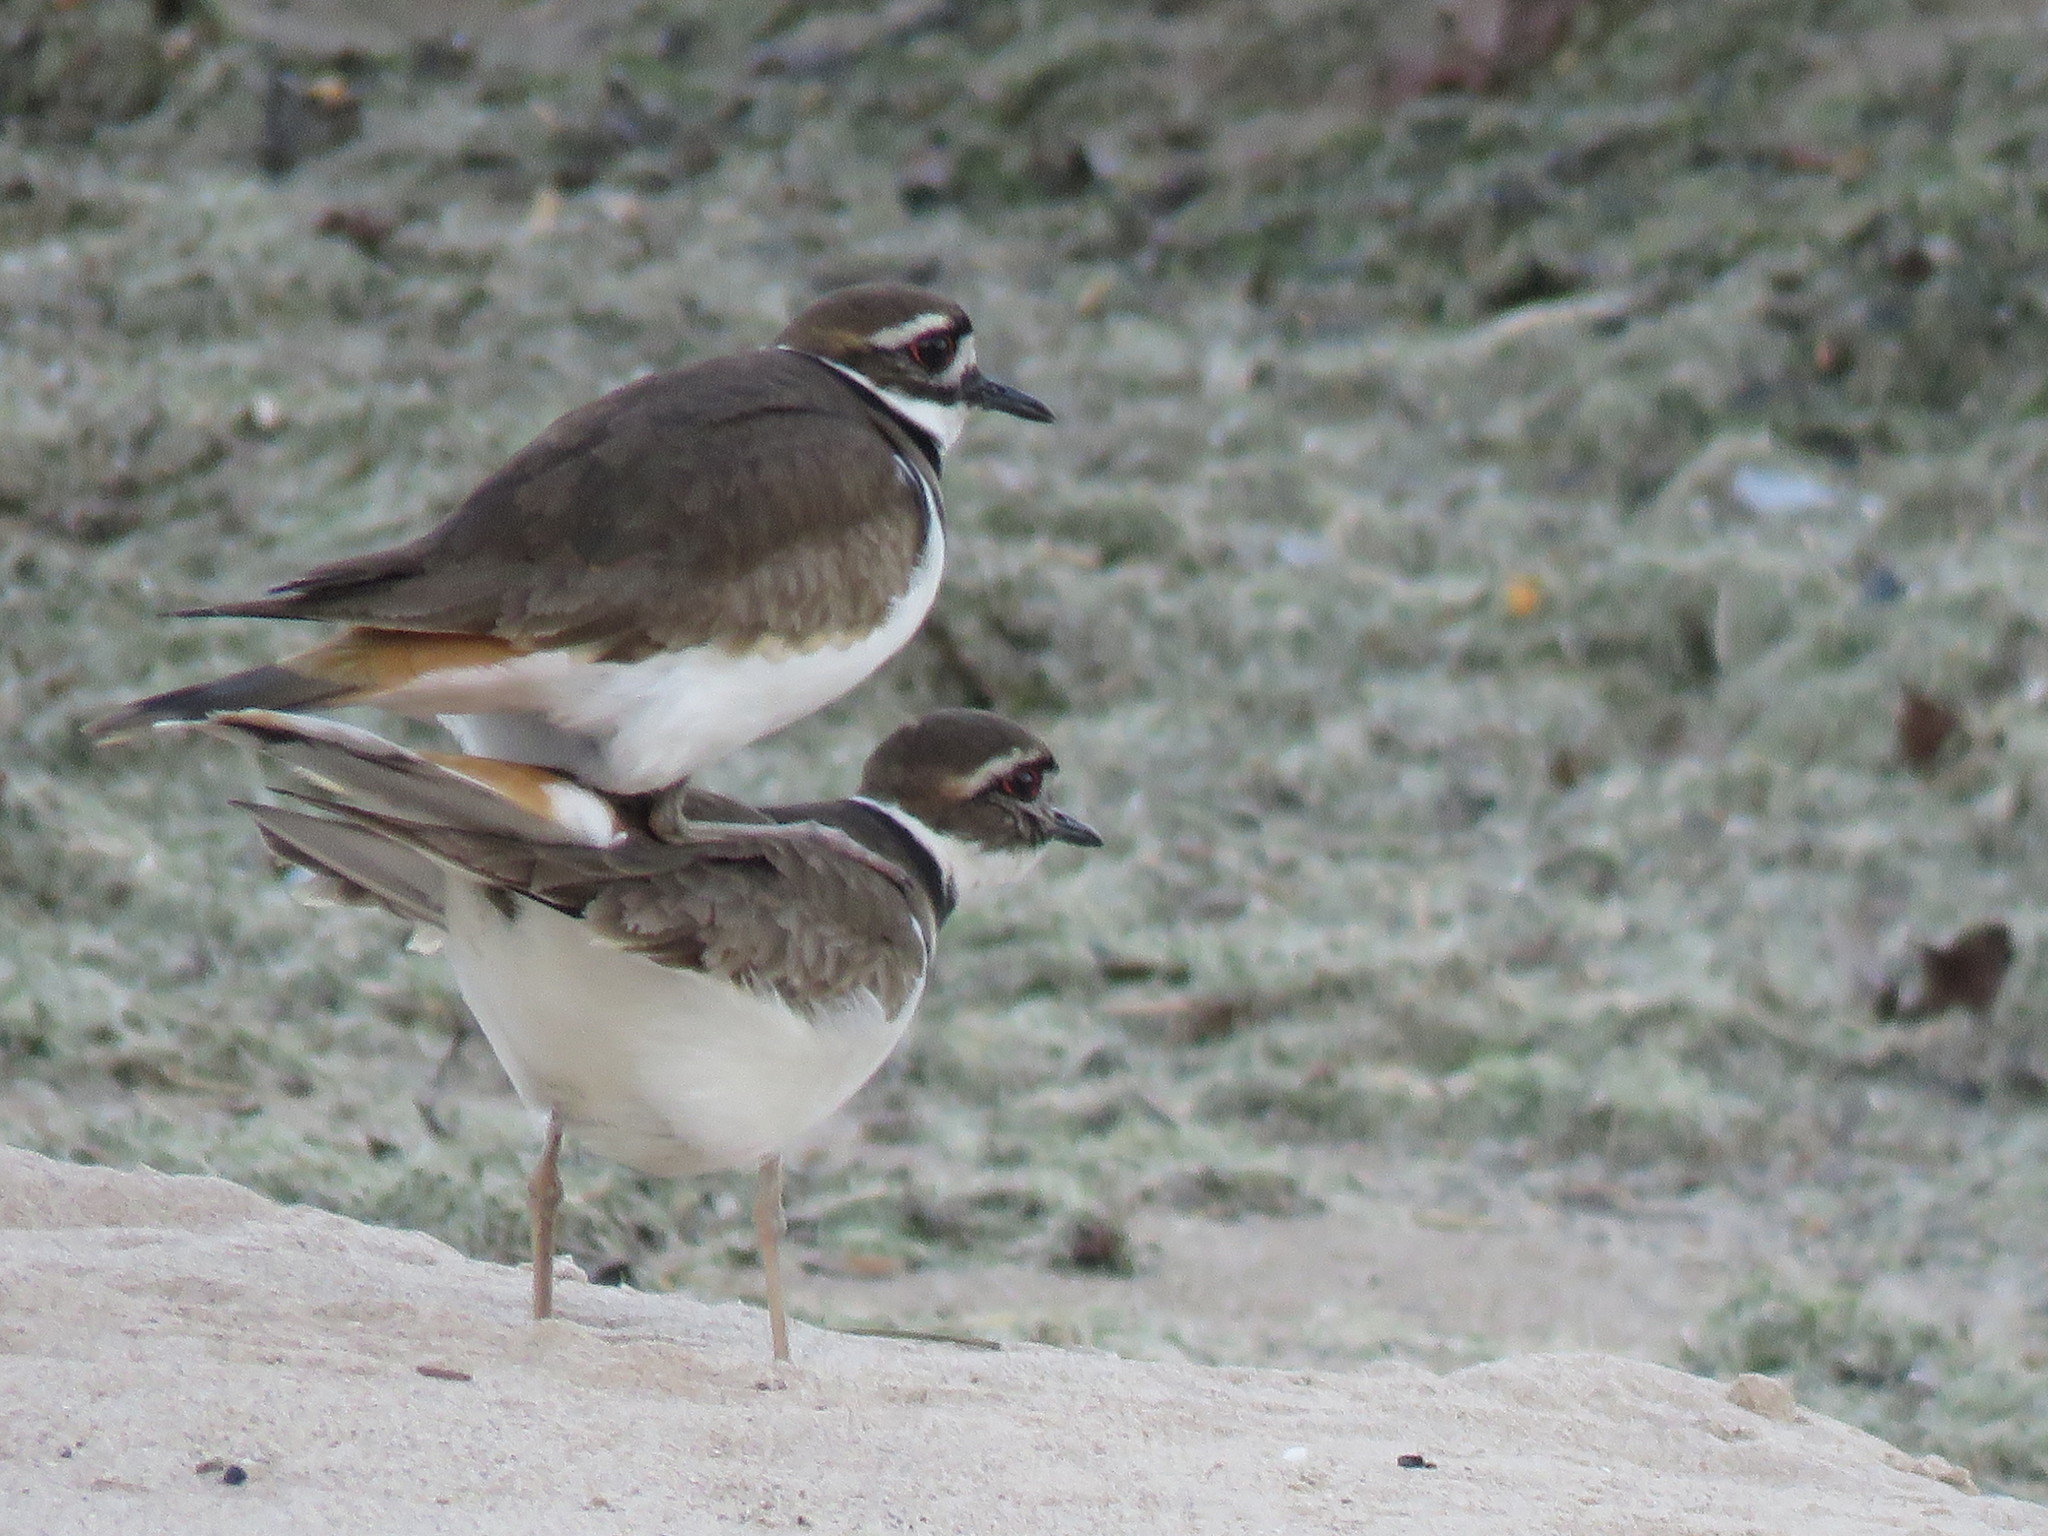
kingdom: Animalia
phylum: Chordata
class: Aves
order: Charadriiformes
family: Charadriidae
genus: Charadrius
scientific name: Charadrius vociferus
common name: Killdeer
